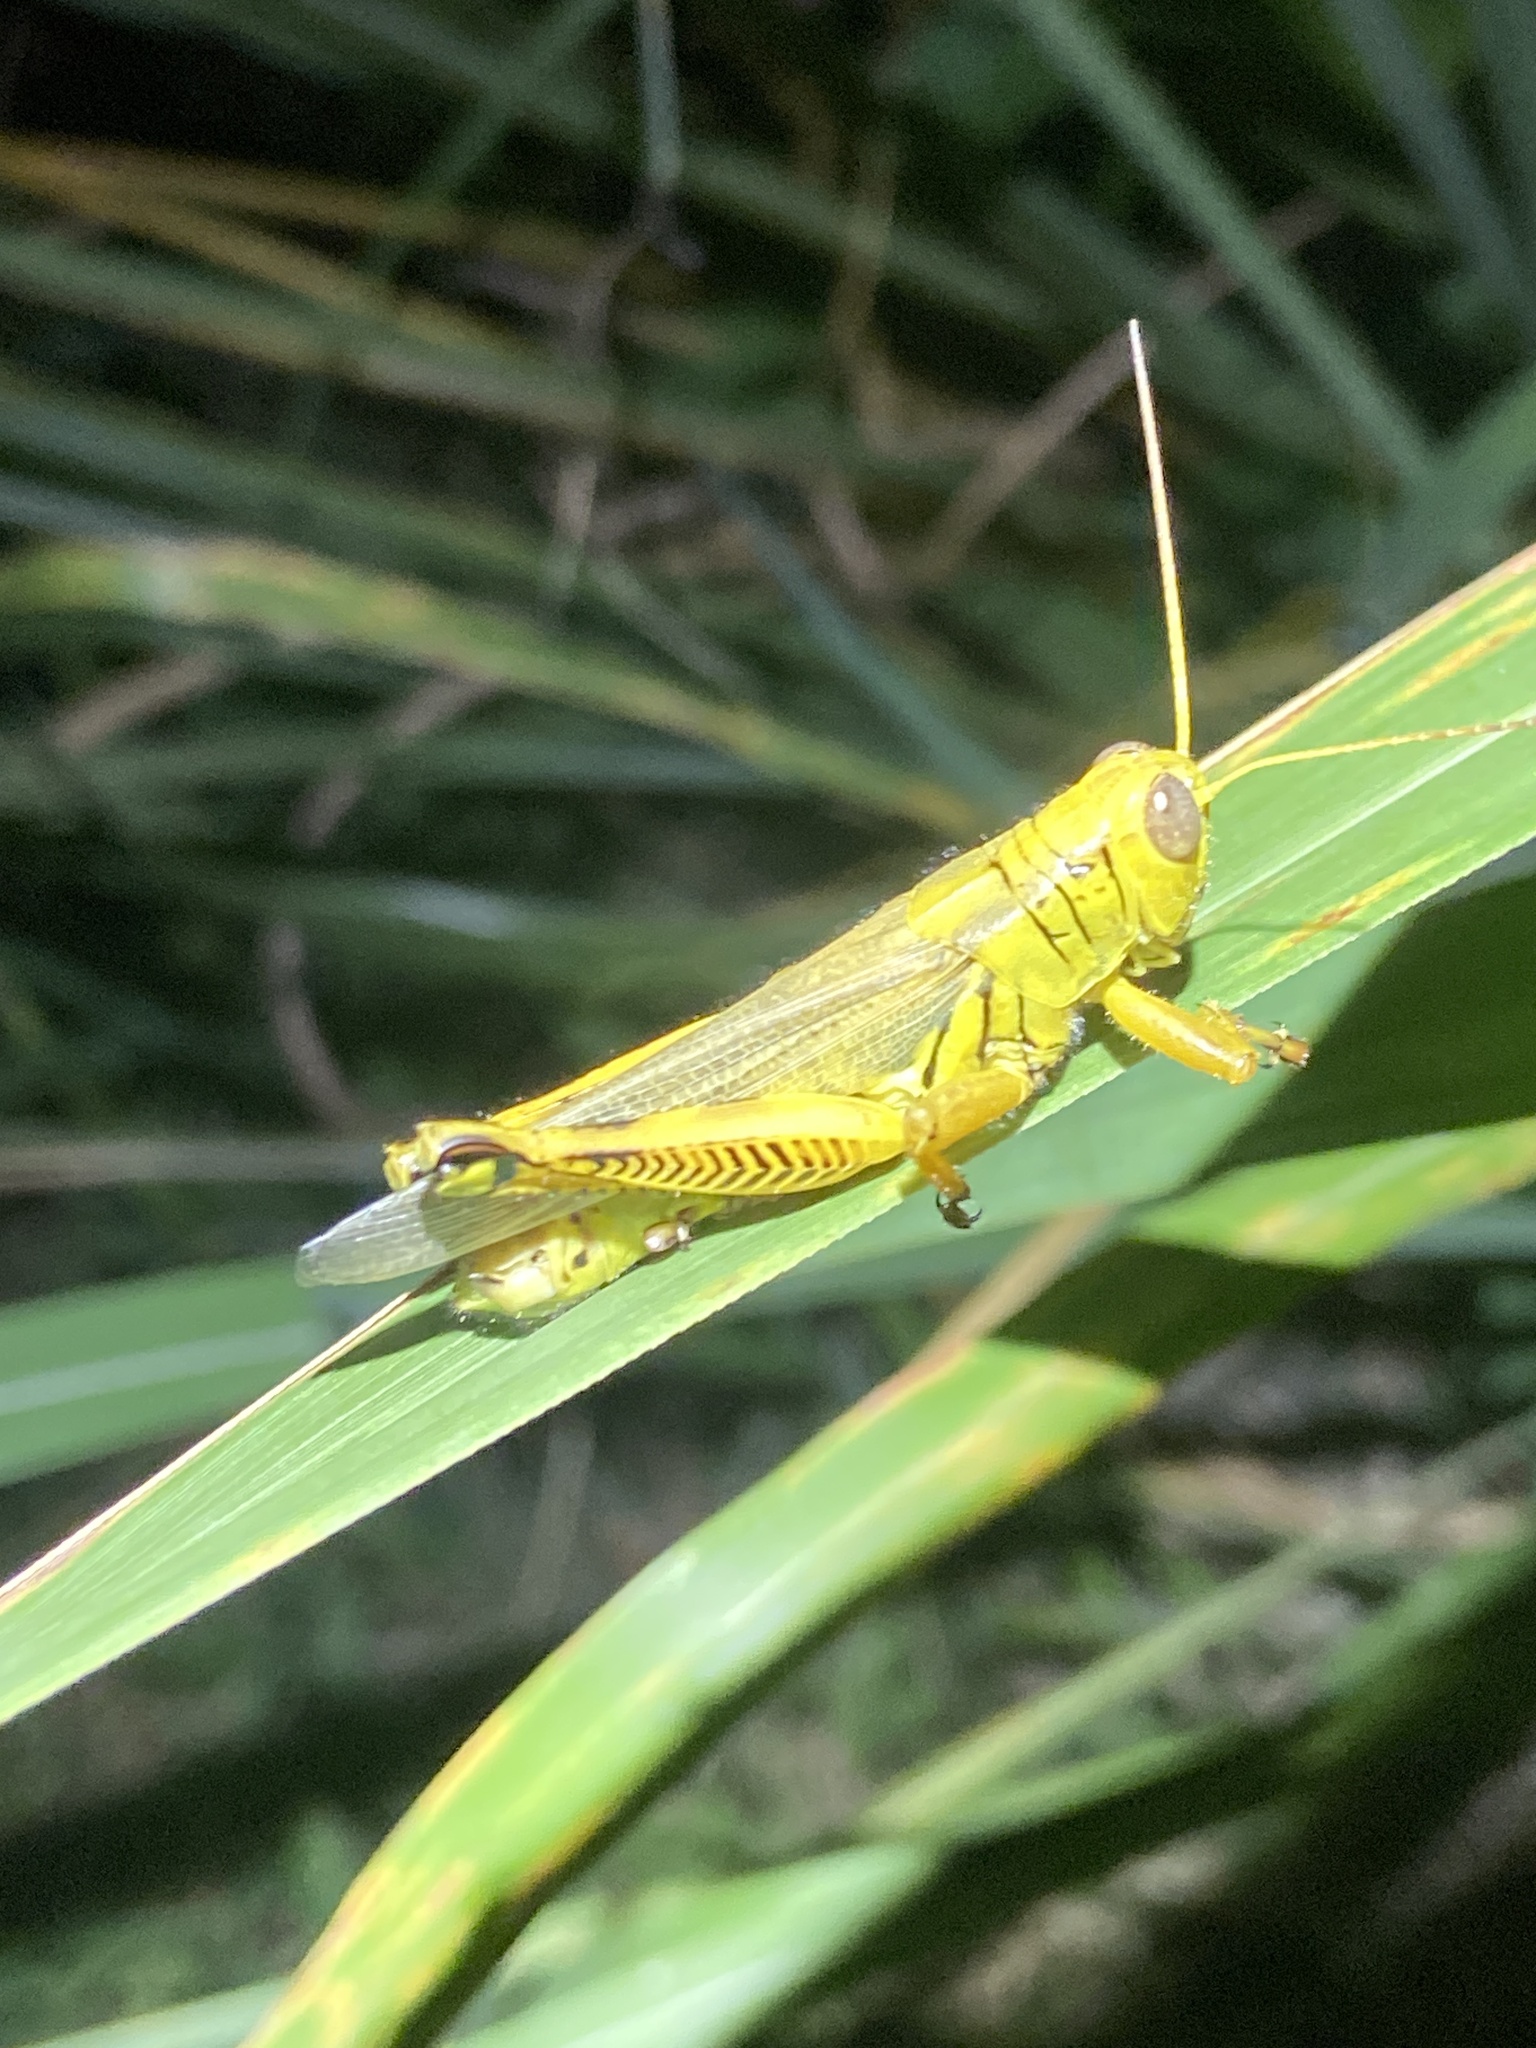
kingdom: Animalia
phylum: Arthropoda
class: Insecta
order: Orthoptera
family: Acrididae
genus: Melanoplus
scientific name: Melanoplus differentialis
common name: Differential grasshopper
